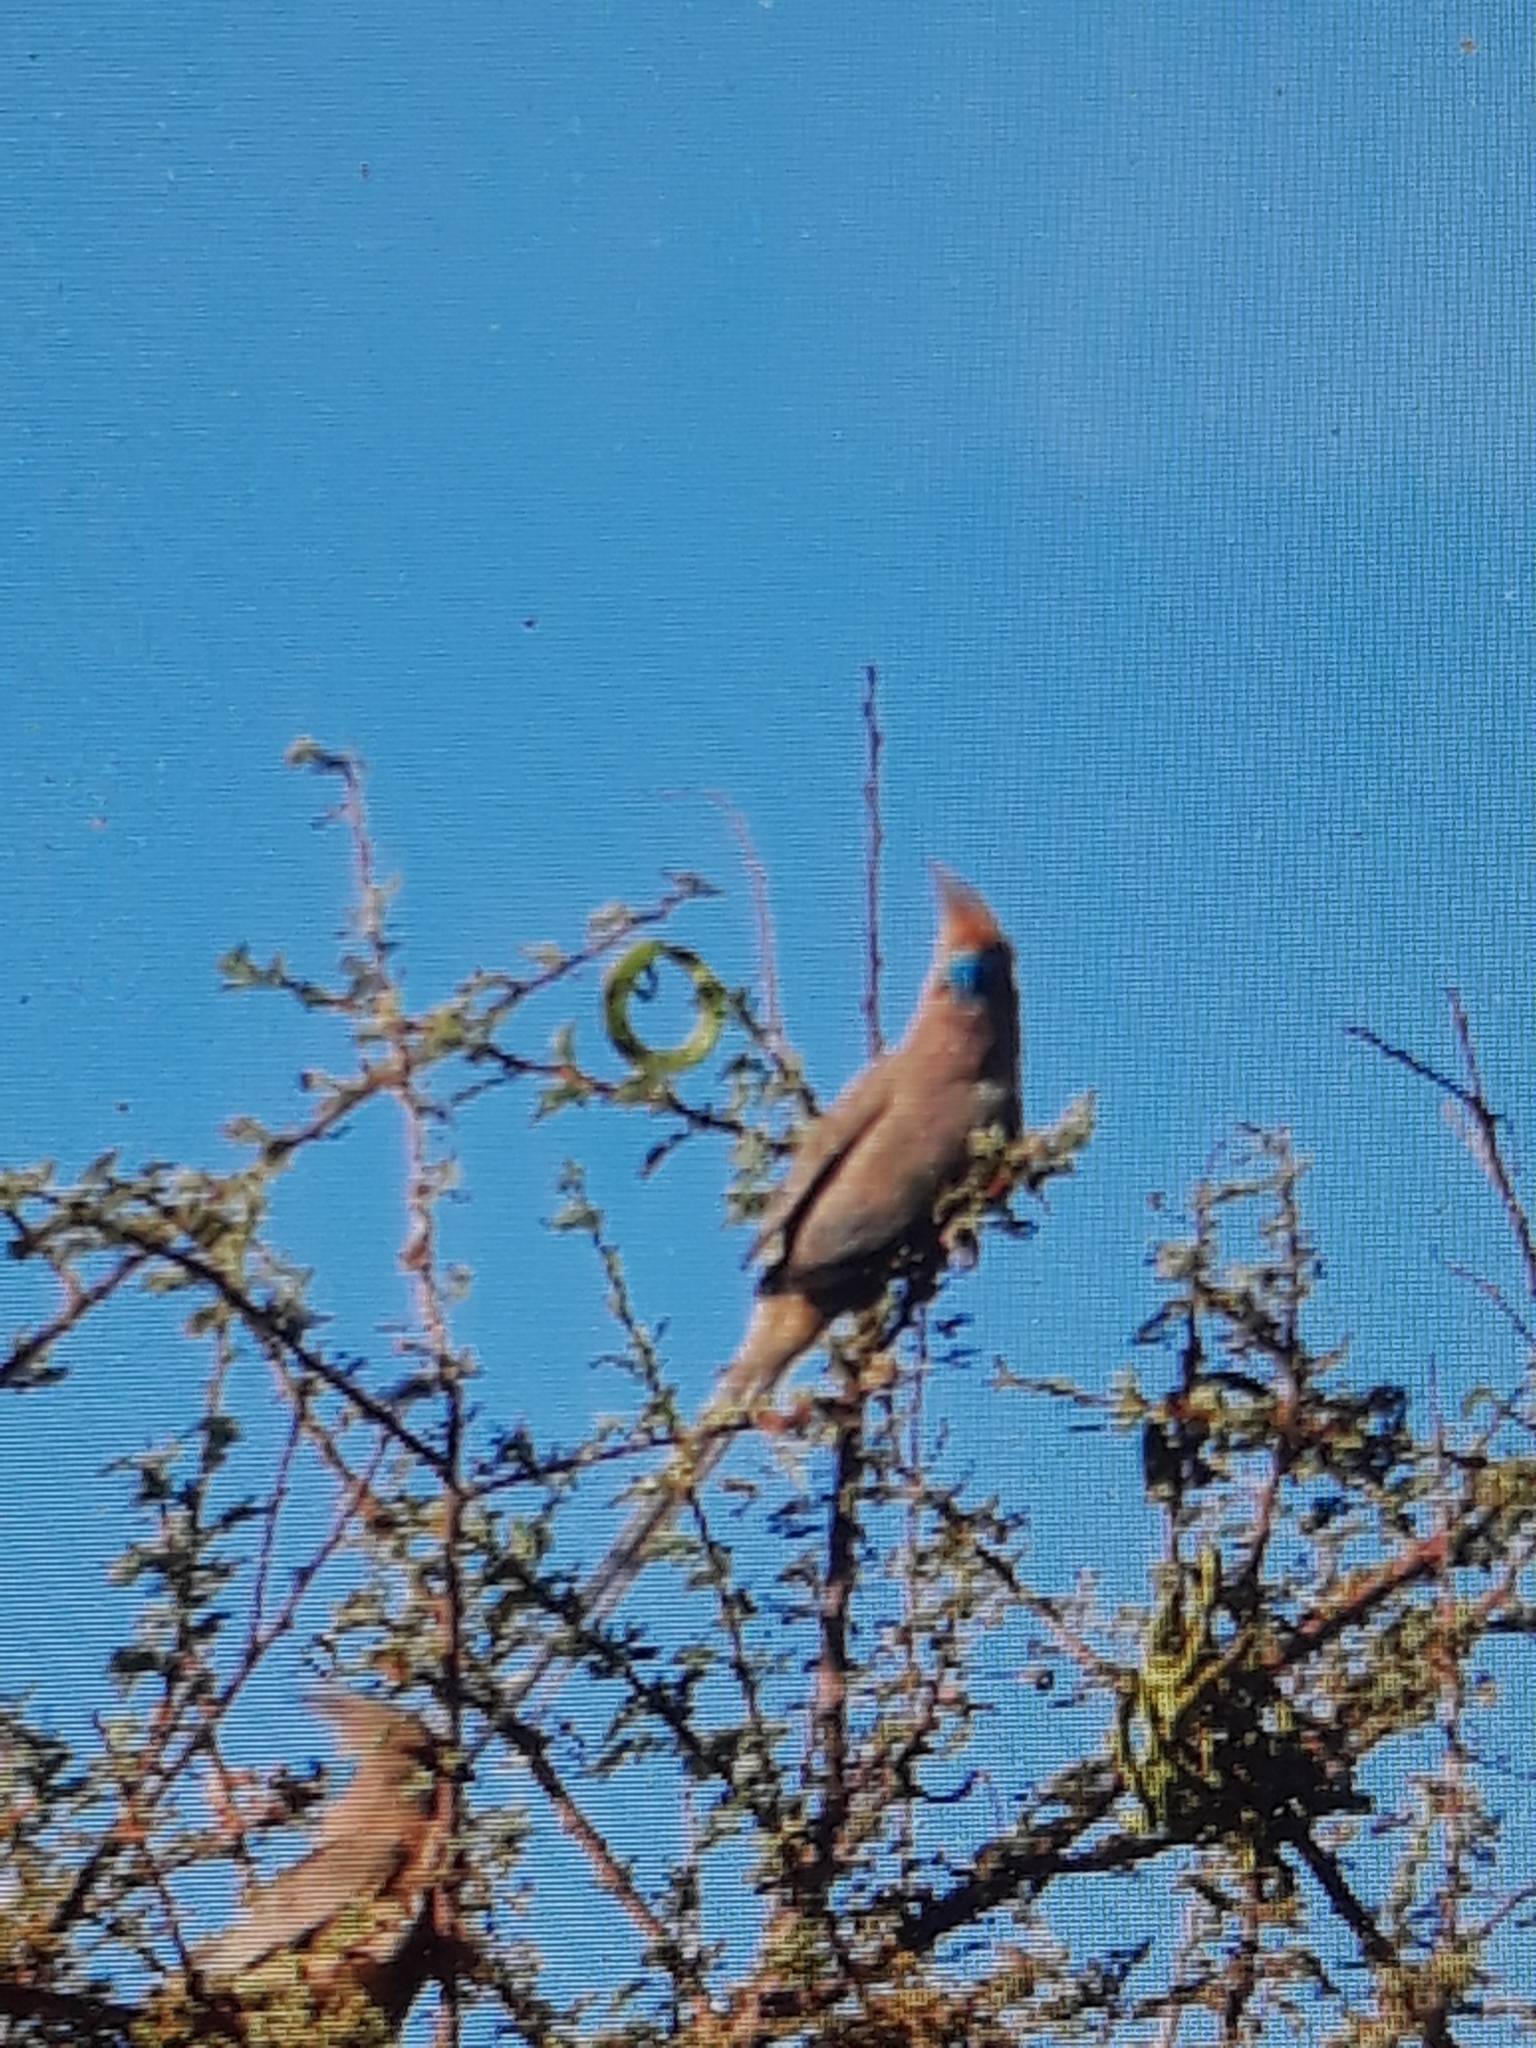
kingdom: Animalia
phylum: Chordata
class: Aves
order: Coliiformes
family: Coliidae
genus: Urocolius
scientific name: Urocolius macrourus
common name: Blue-naped mousebird
